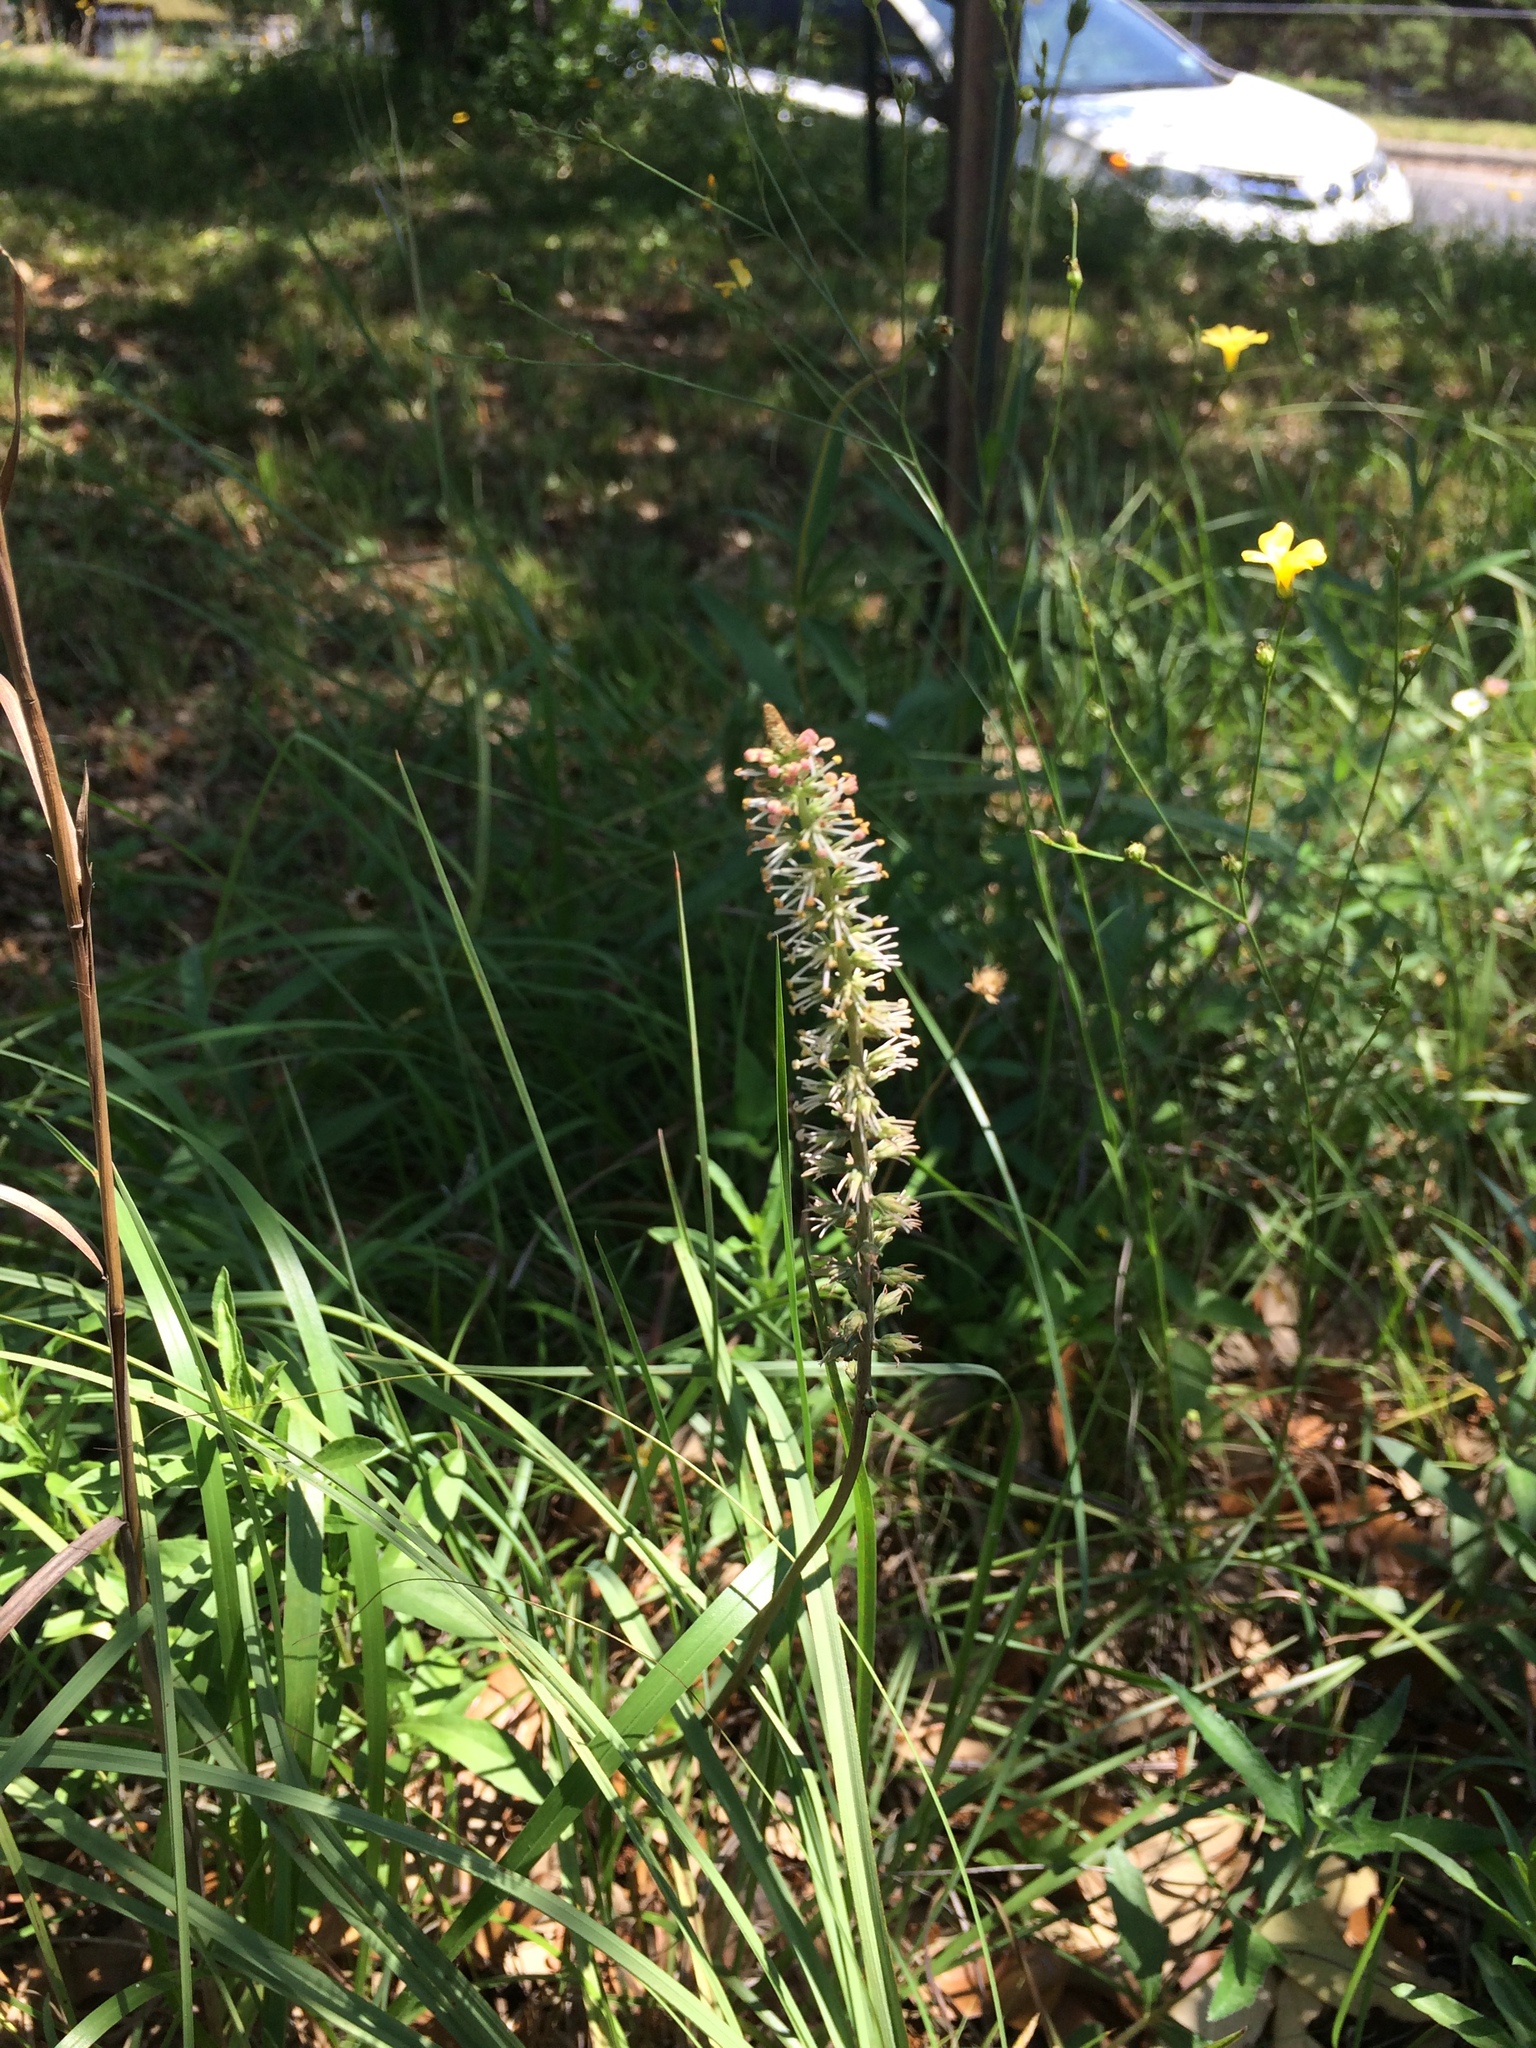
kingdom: Plantae
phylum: Tracheophyta
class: Liliopsida
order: Liliales
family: Melanthiaceae
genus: Schoenocaulon
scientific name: Schoenocaulon texanum
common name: Texas feather-shank
